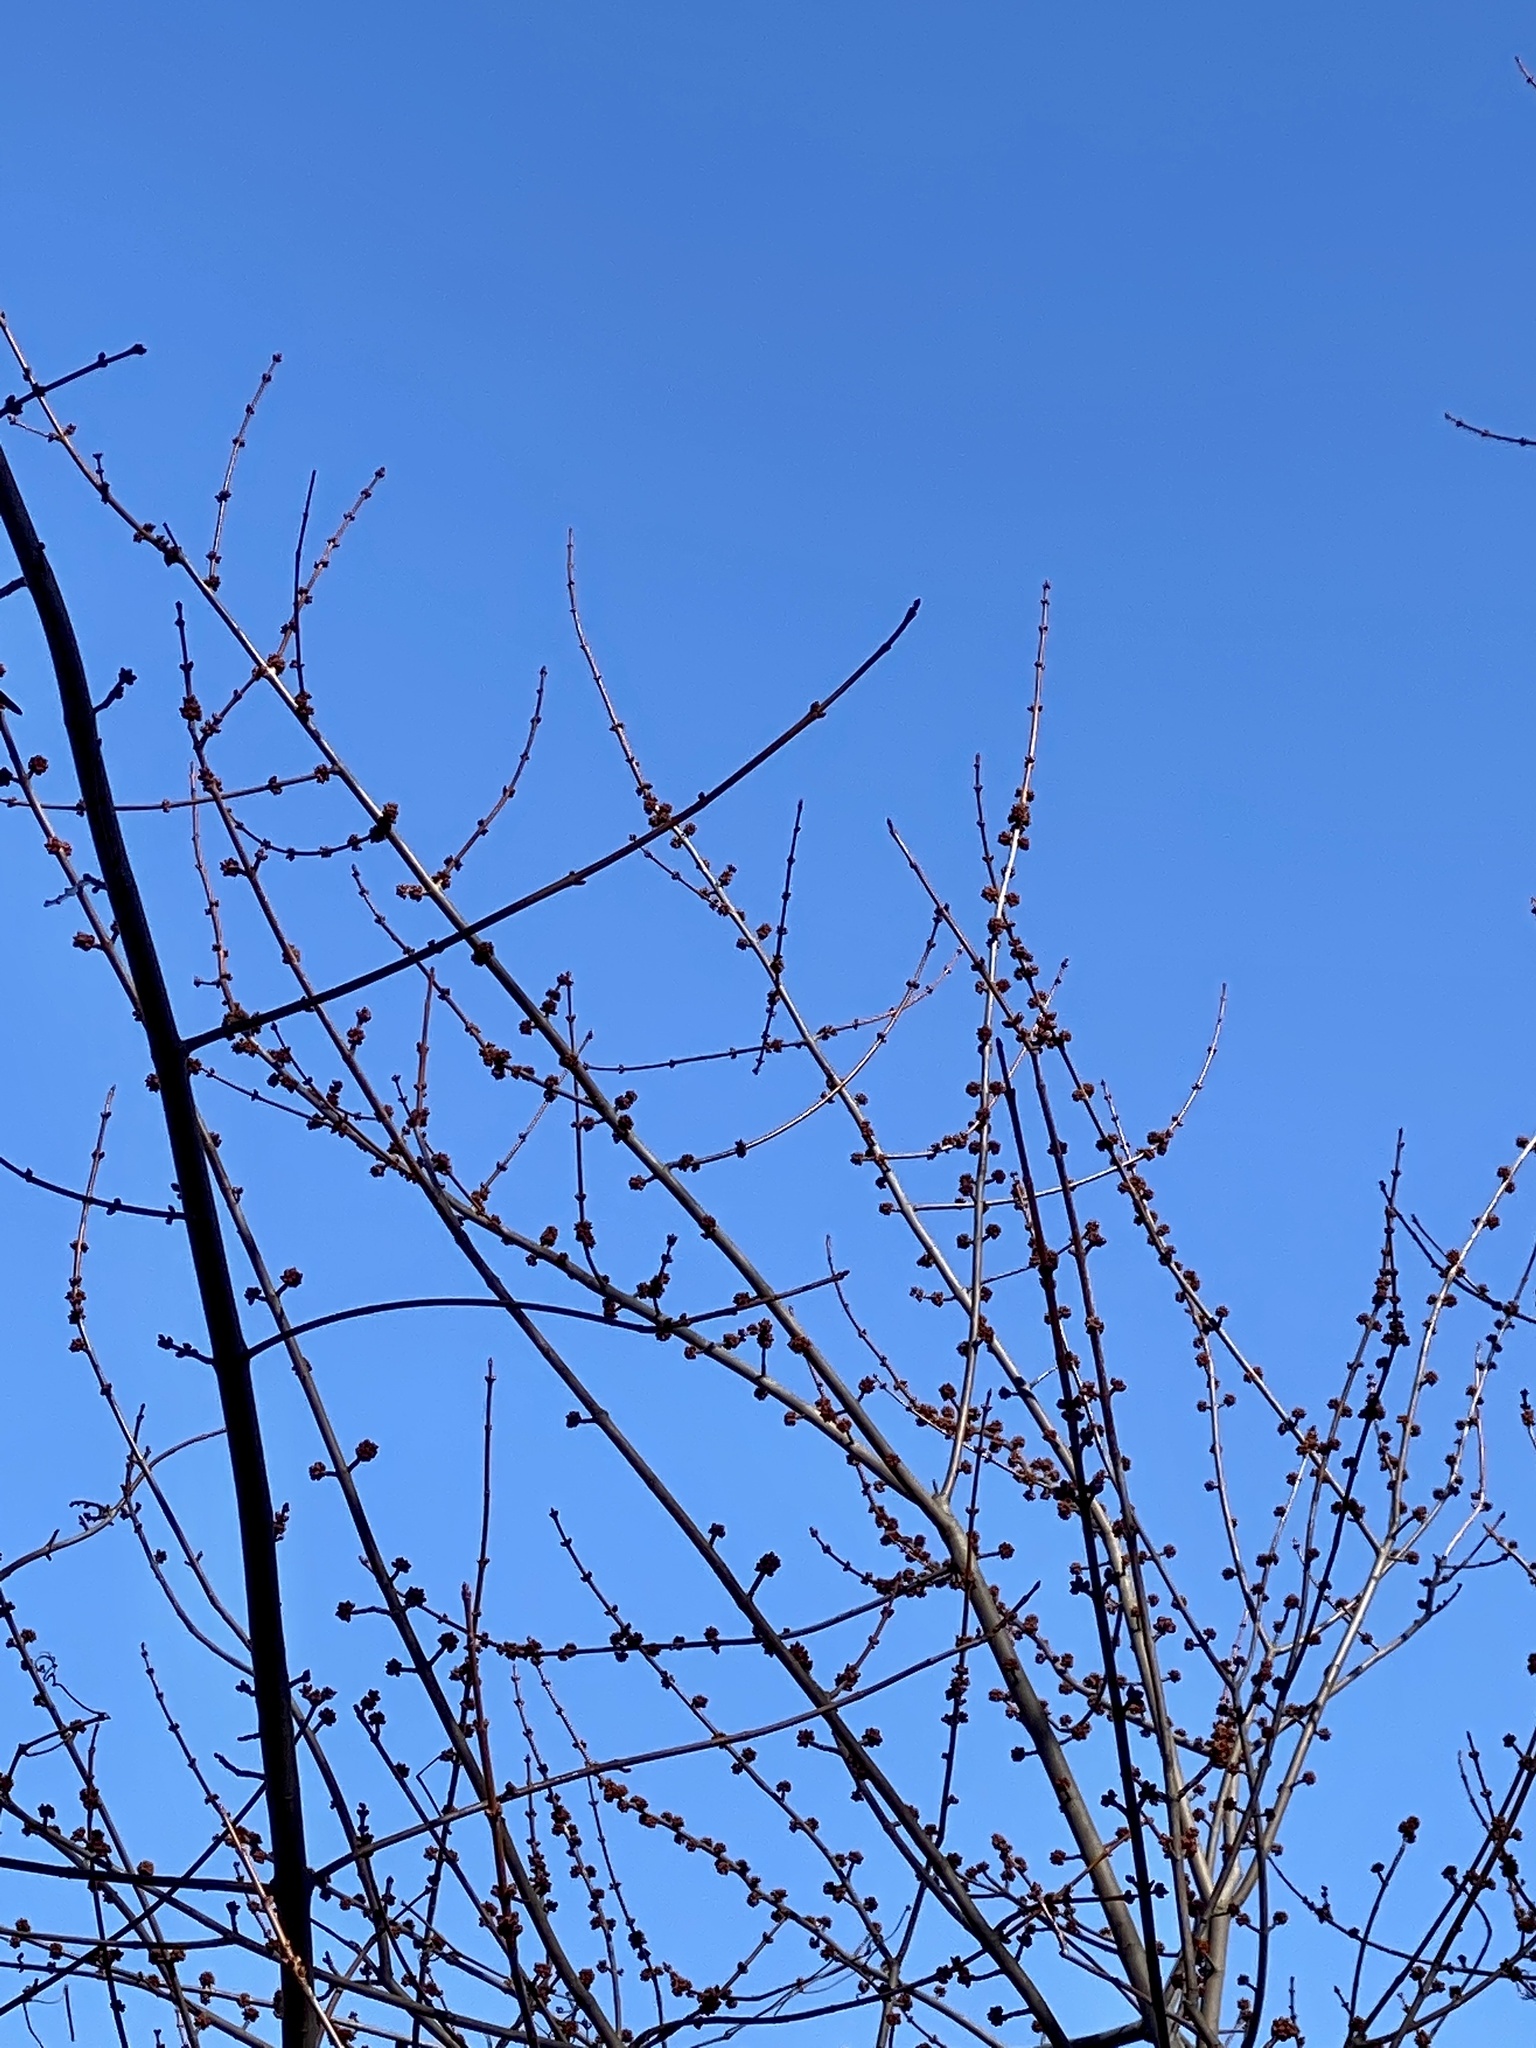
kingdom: Plantae
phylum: Tracheophyta
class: Magnoliopsida
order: Sapindales
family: Sapindaceae
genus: Acer
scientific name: Acer rubrum
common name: Red maple
